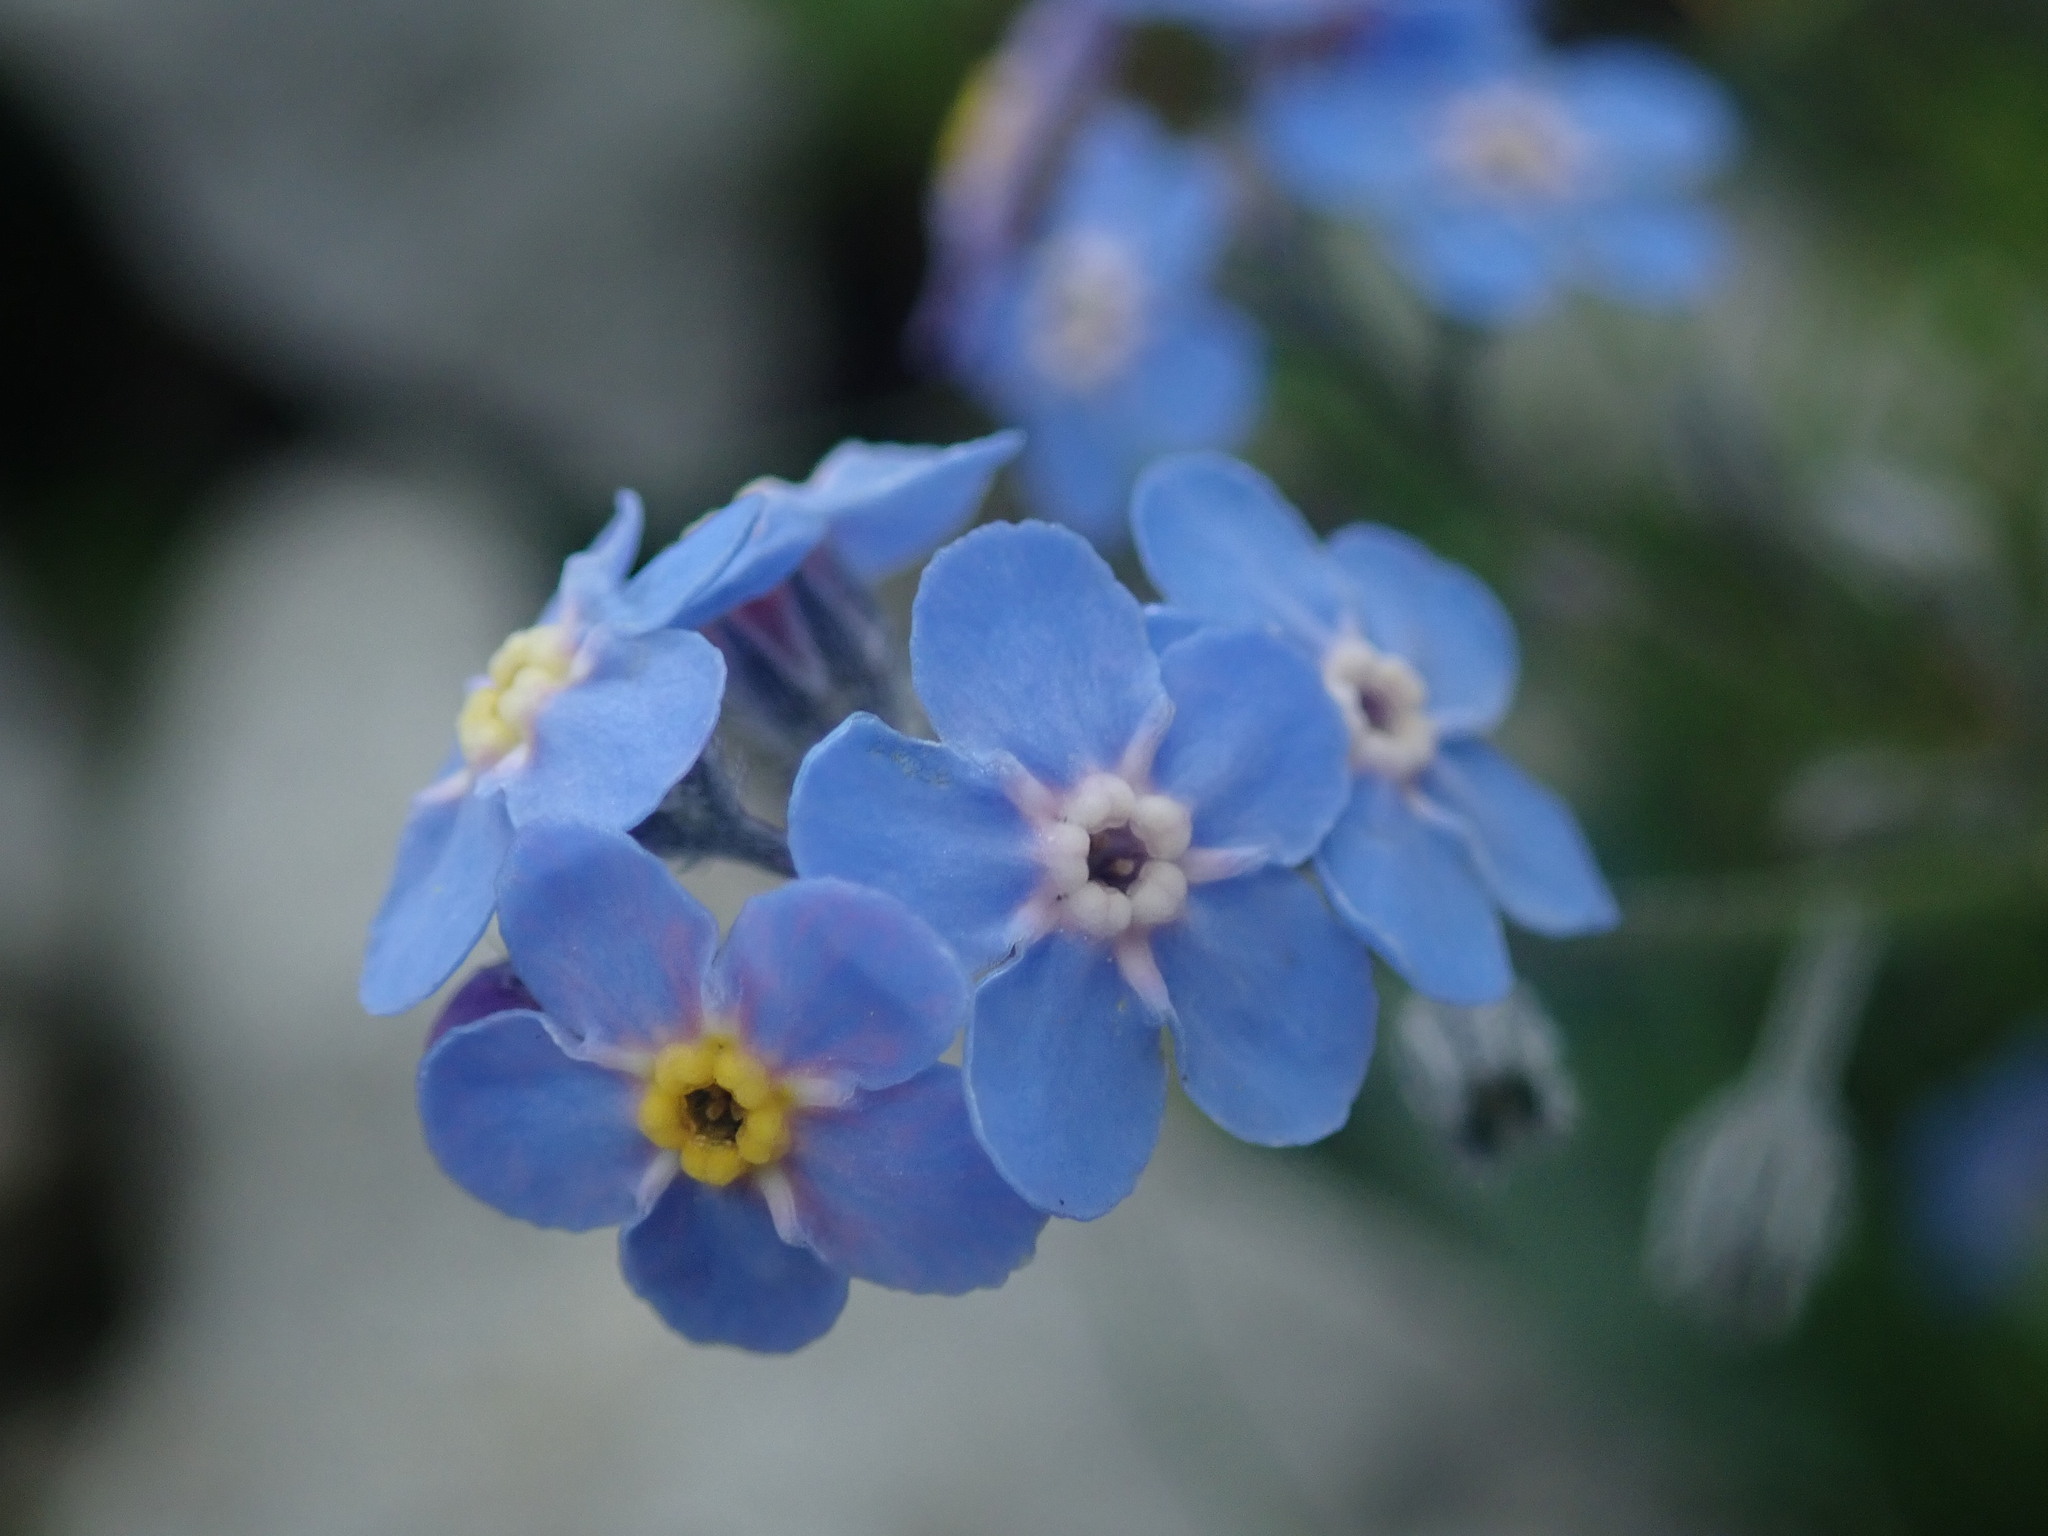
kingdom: Plantae
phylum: Tracheophyta
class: Magnoliopsida
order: Boraginales
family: Boraginaceae
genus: Myosotis
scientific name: Myosotis alpestris
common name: Alpine forget-me-not
